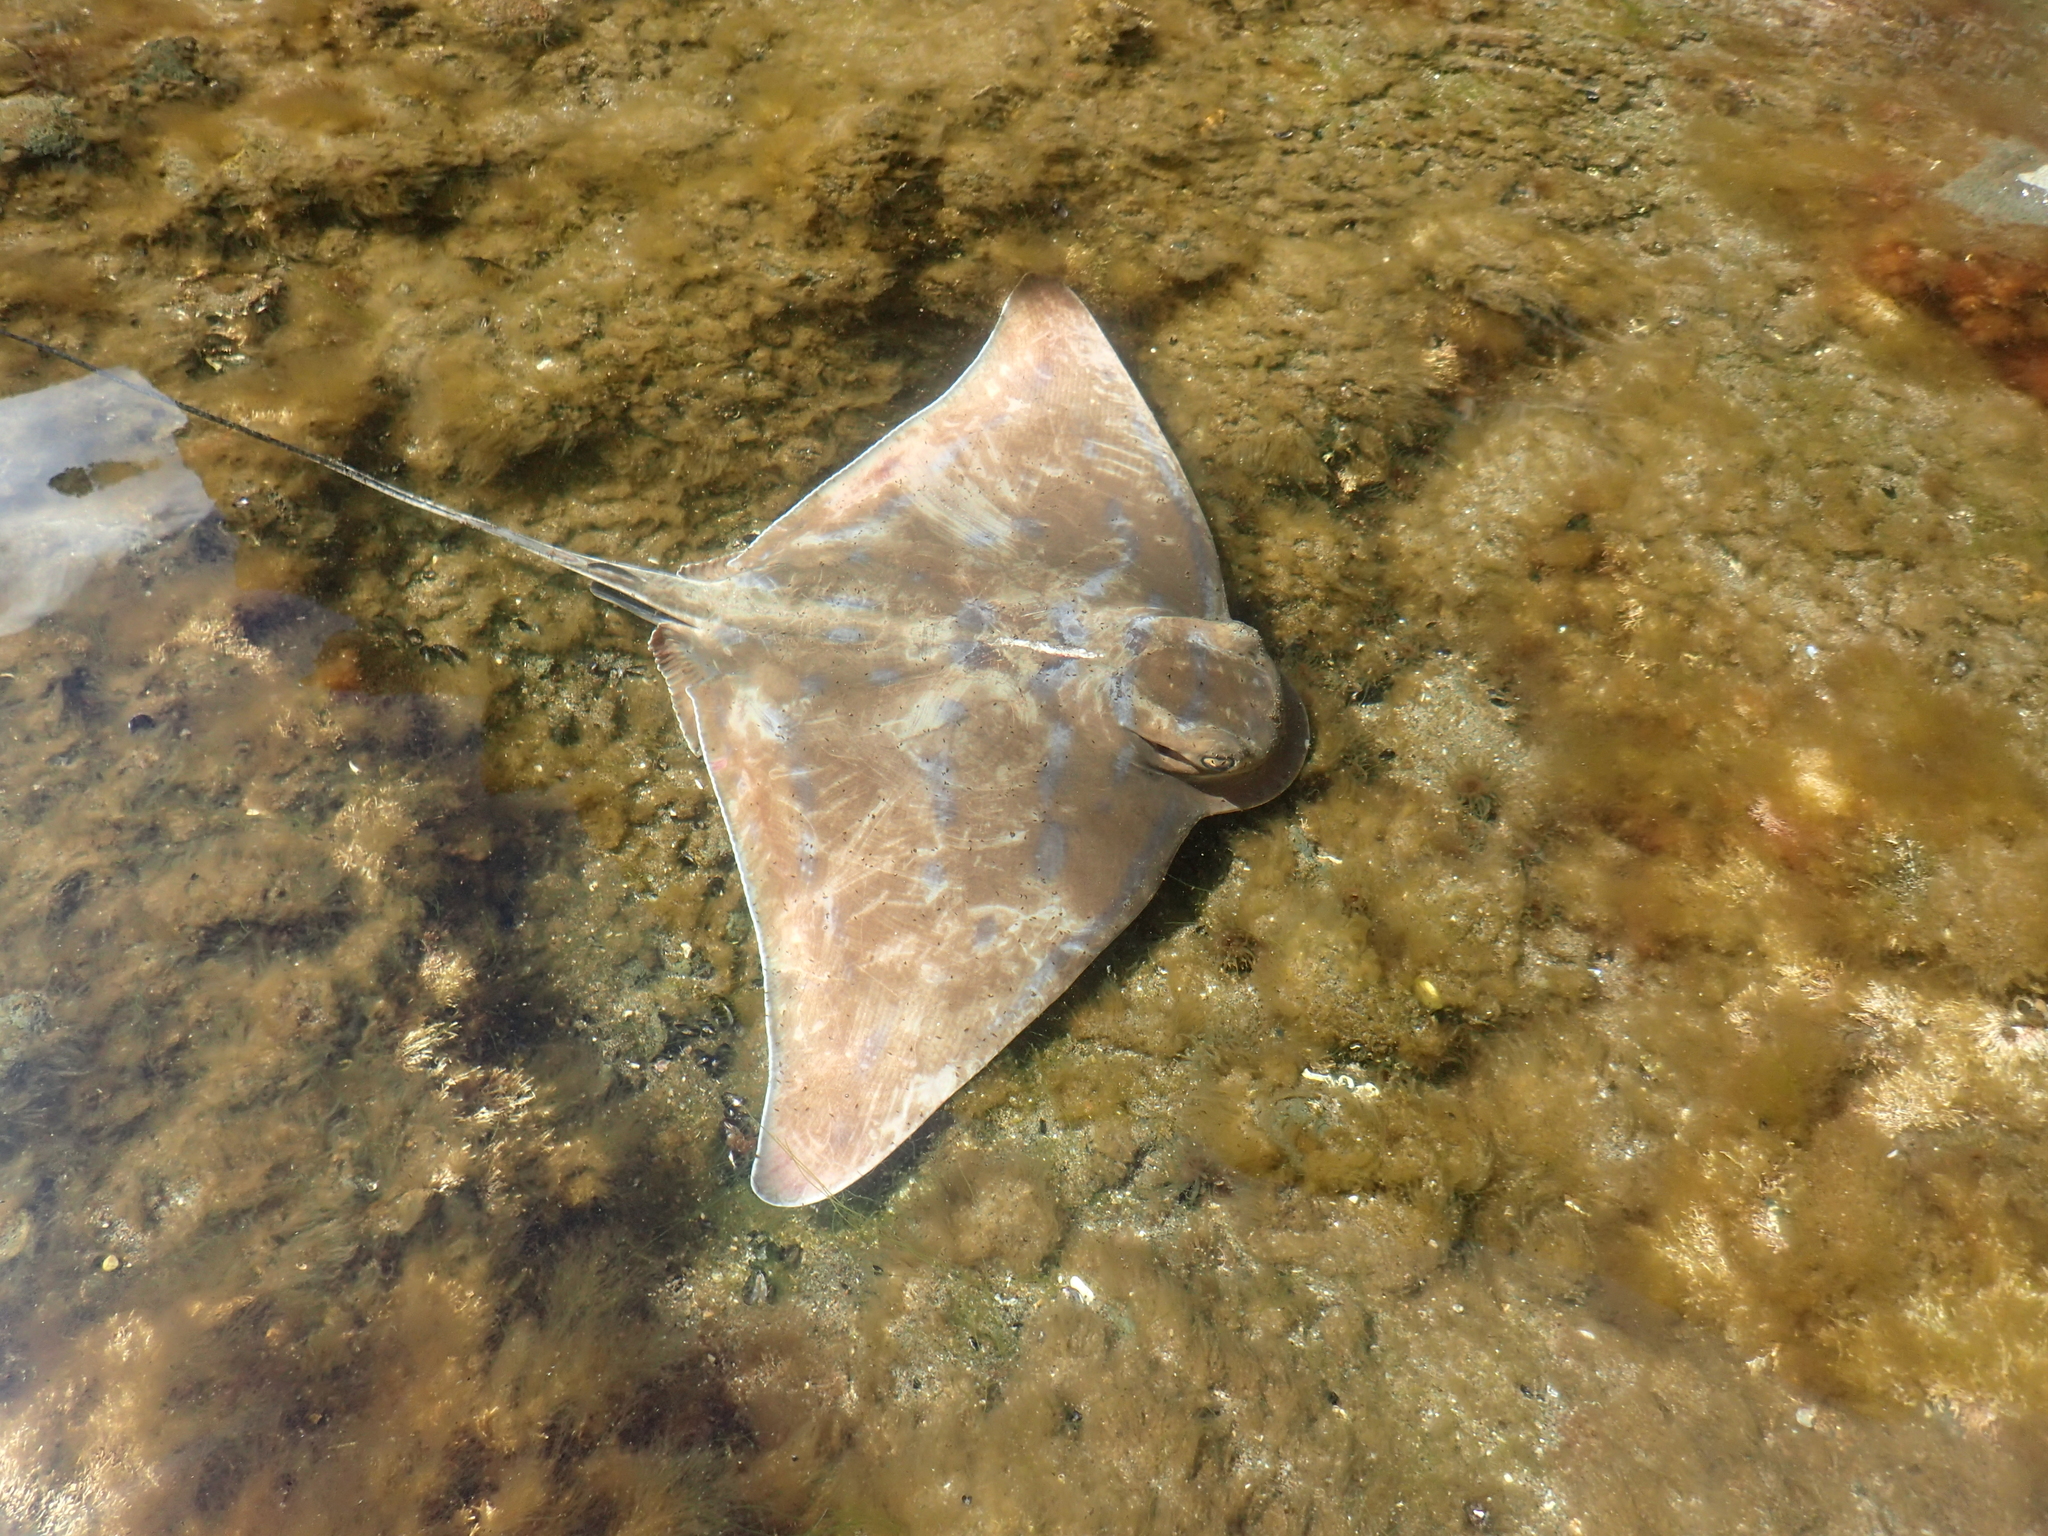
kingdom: Animalia
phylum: Chordata
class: Elasmobranchii
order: Myliobatiformes
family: Myliobatidae
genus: Myliobatis
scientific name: Myliobatis tenuicaudatus
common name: Eagle ray
